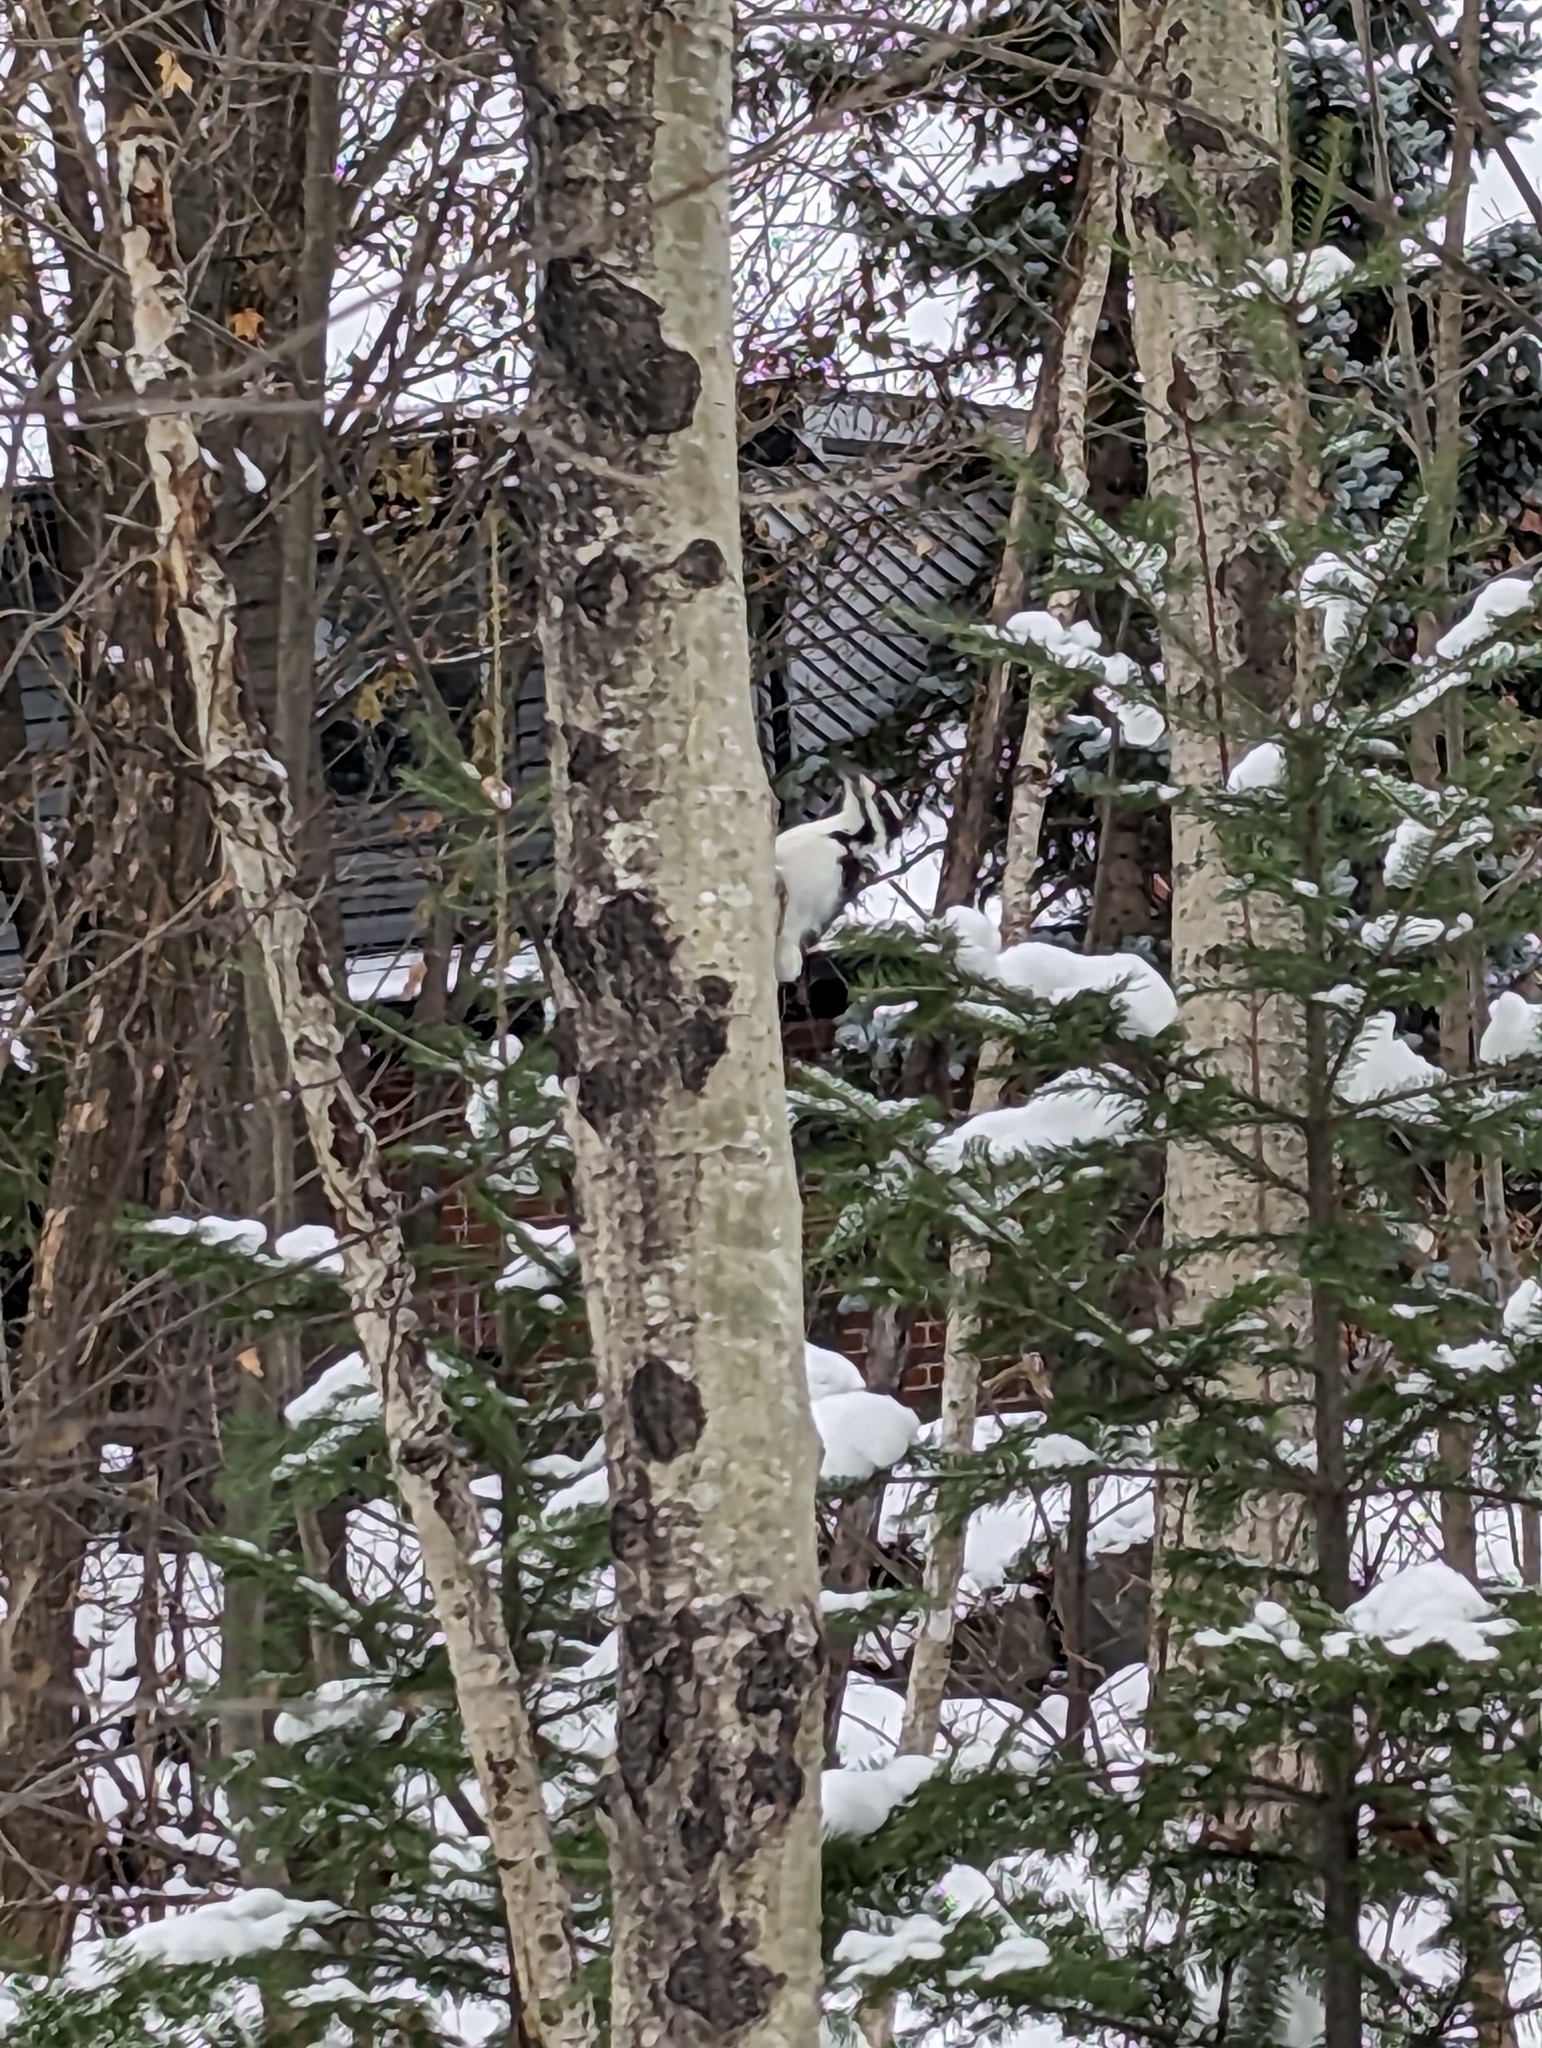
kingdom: Animalia
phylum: Chordata
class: Aves
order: Piciformes
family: Picidae
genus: Leuconotopicus
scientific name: Leuconotopicus villosus
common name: Hairy woodpecker
